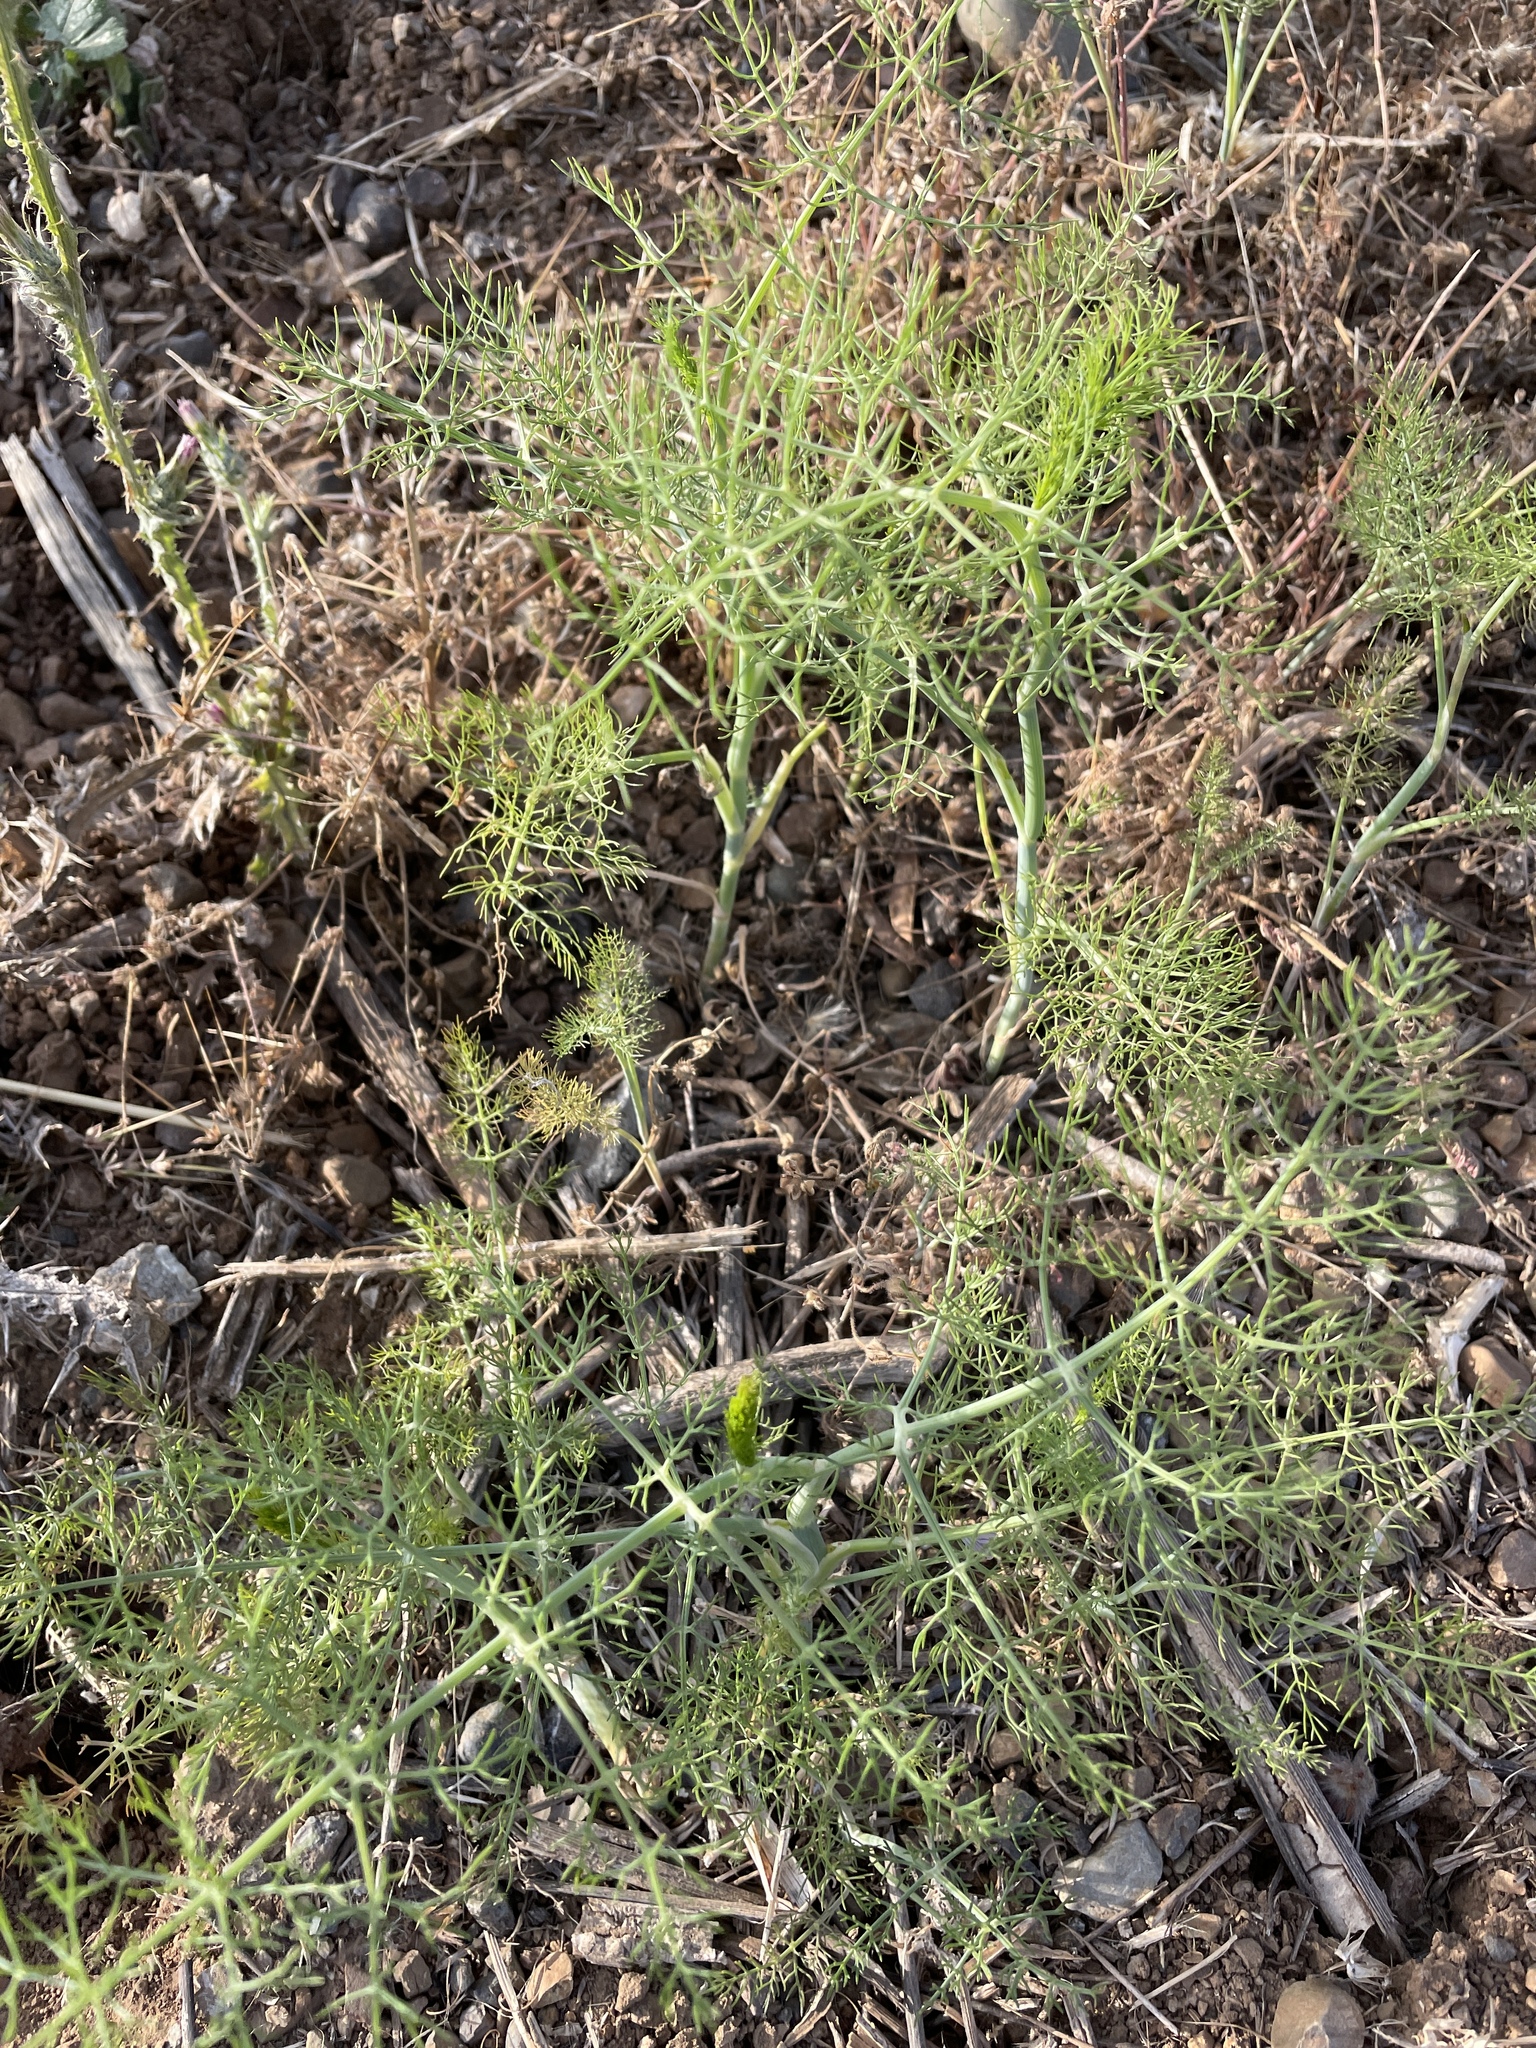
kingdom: Plantae
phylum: Tracheophyta
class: Magnoliopsida
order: Apiales
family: Apiaceae
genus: Foeniculum
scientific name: Foeniculum vulgare
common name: Fennel
